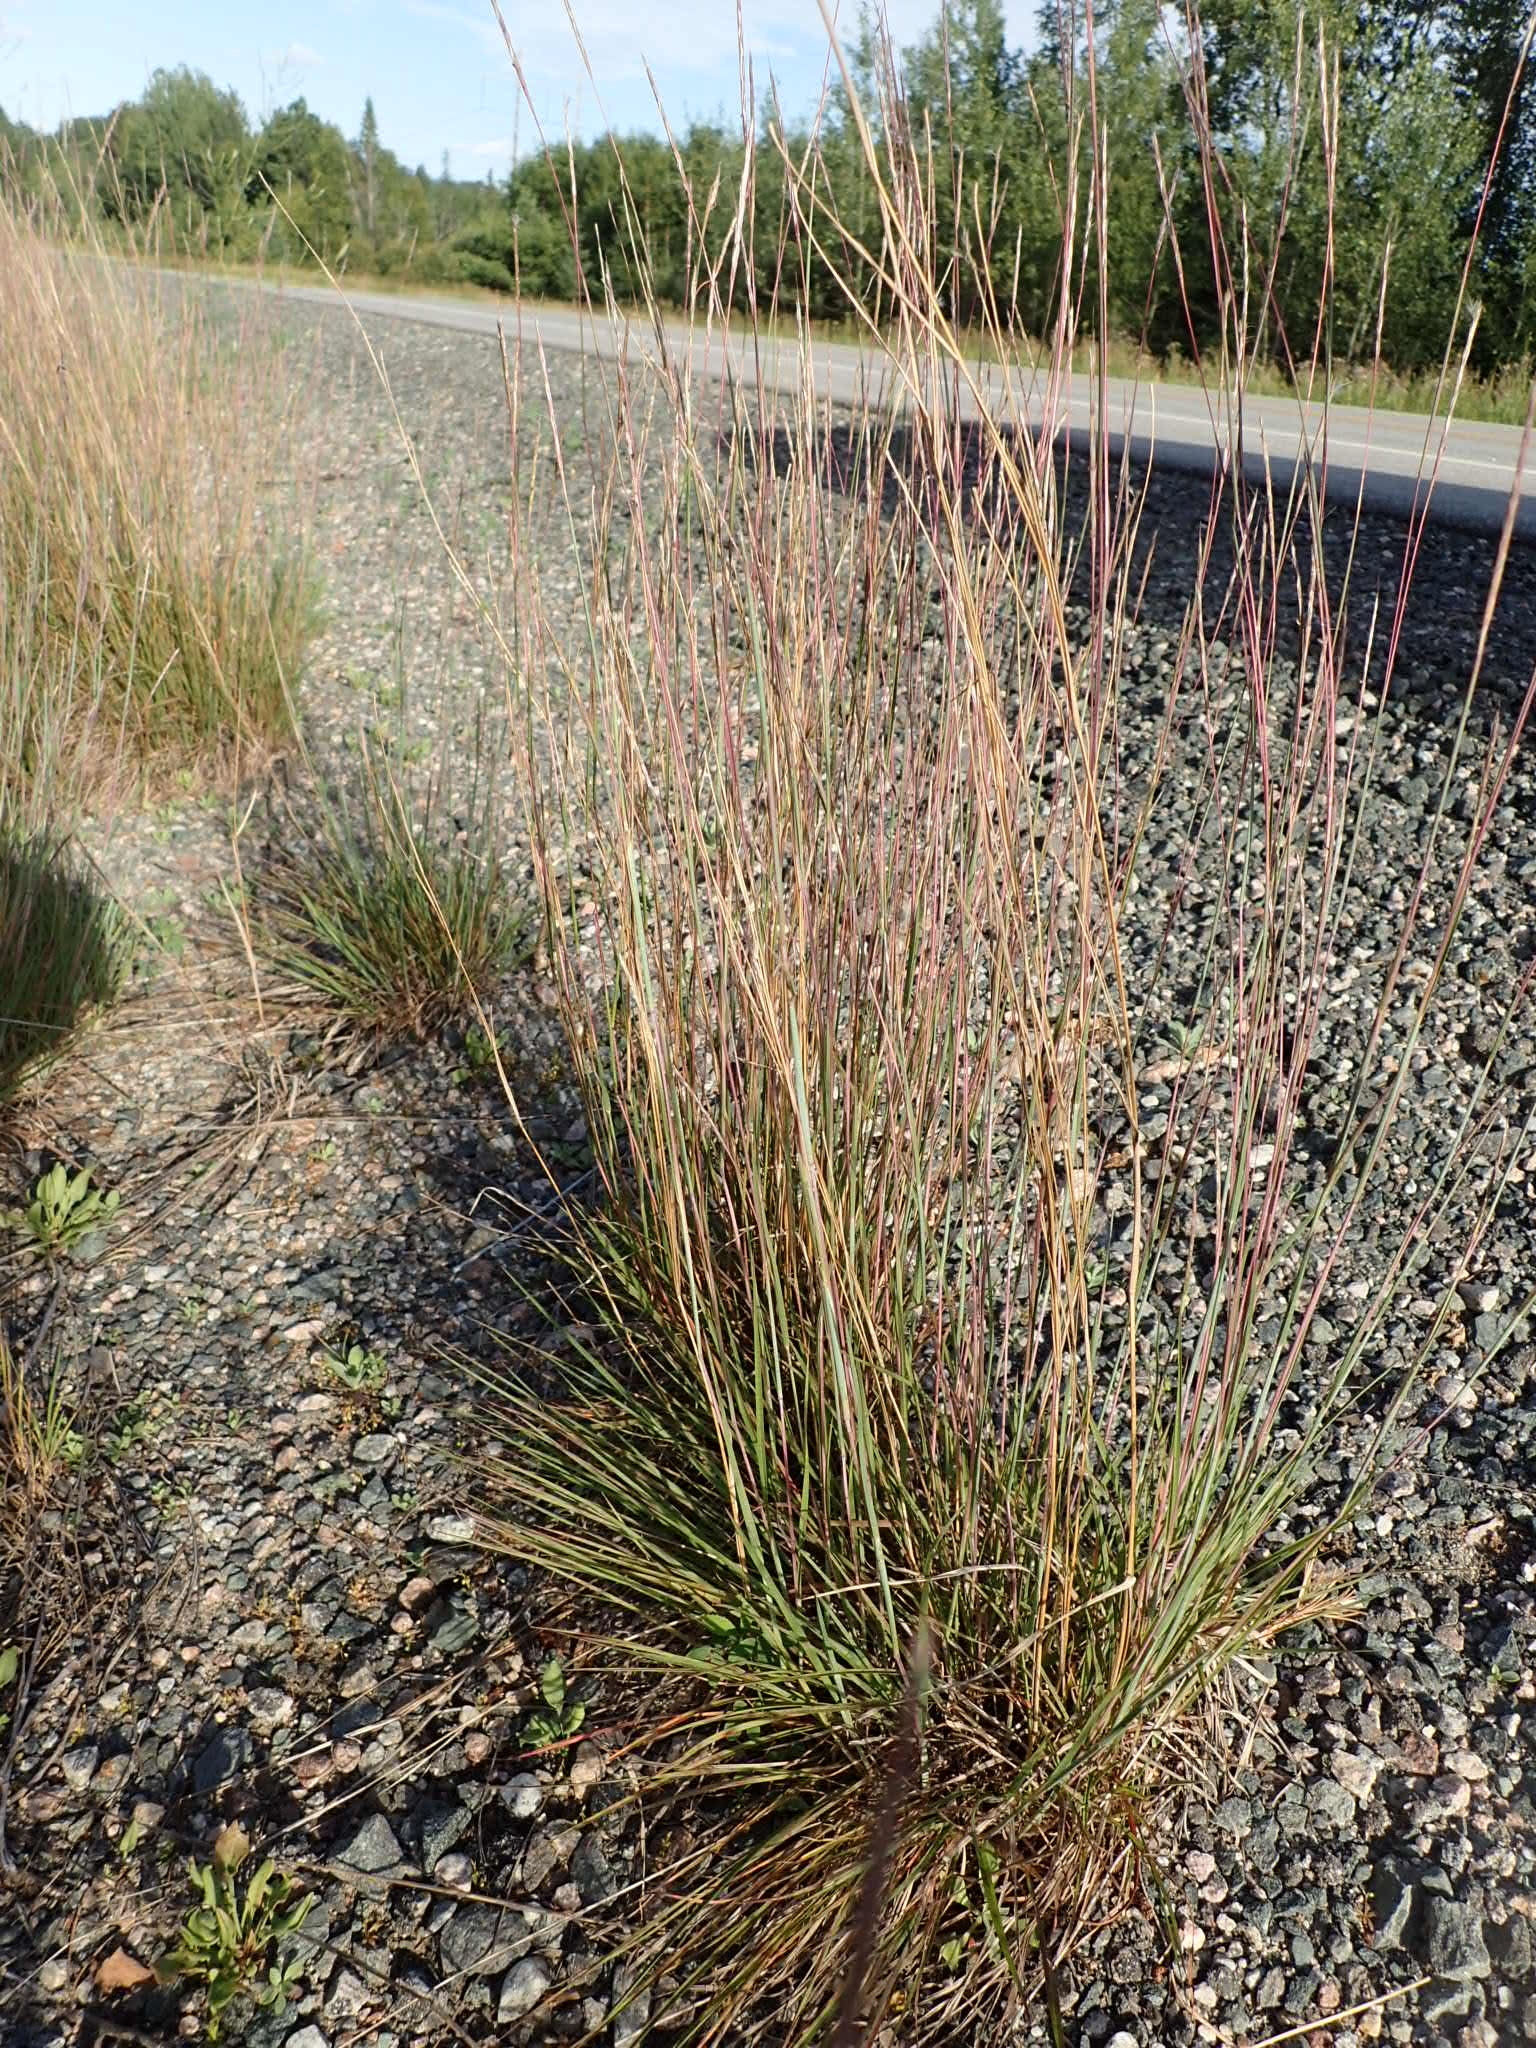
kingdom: Plantae
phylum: Tracheophyta
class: Liliopsida
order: Poales
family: Poaceae
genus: Schizachyrium
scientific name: Schizachyrium scoparium
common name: Little bluestem
